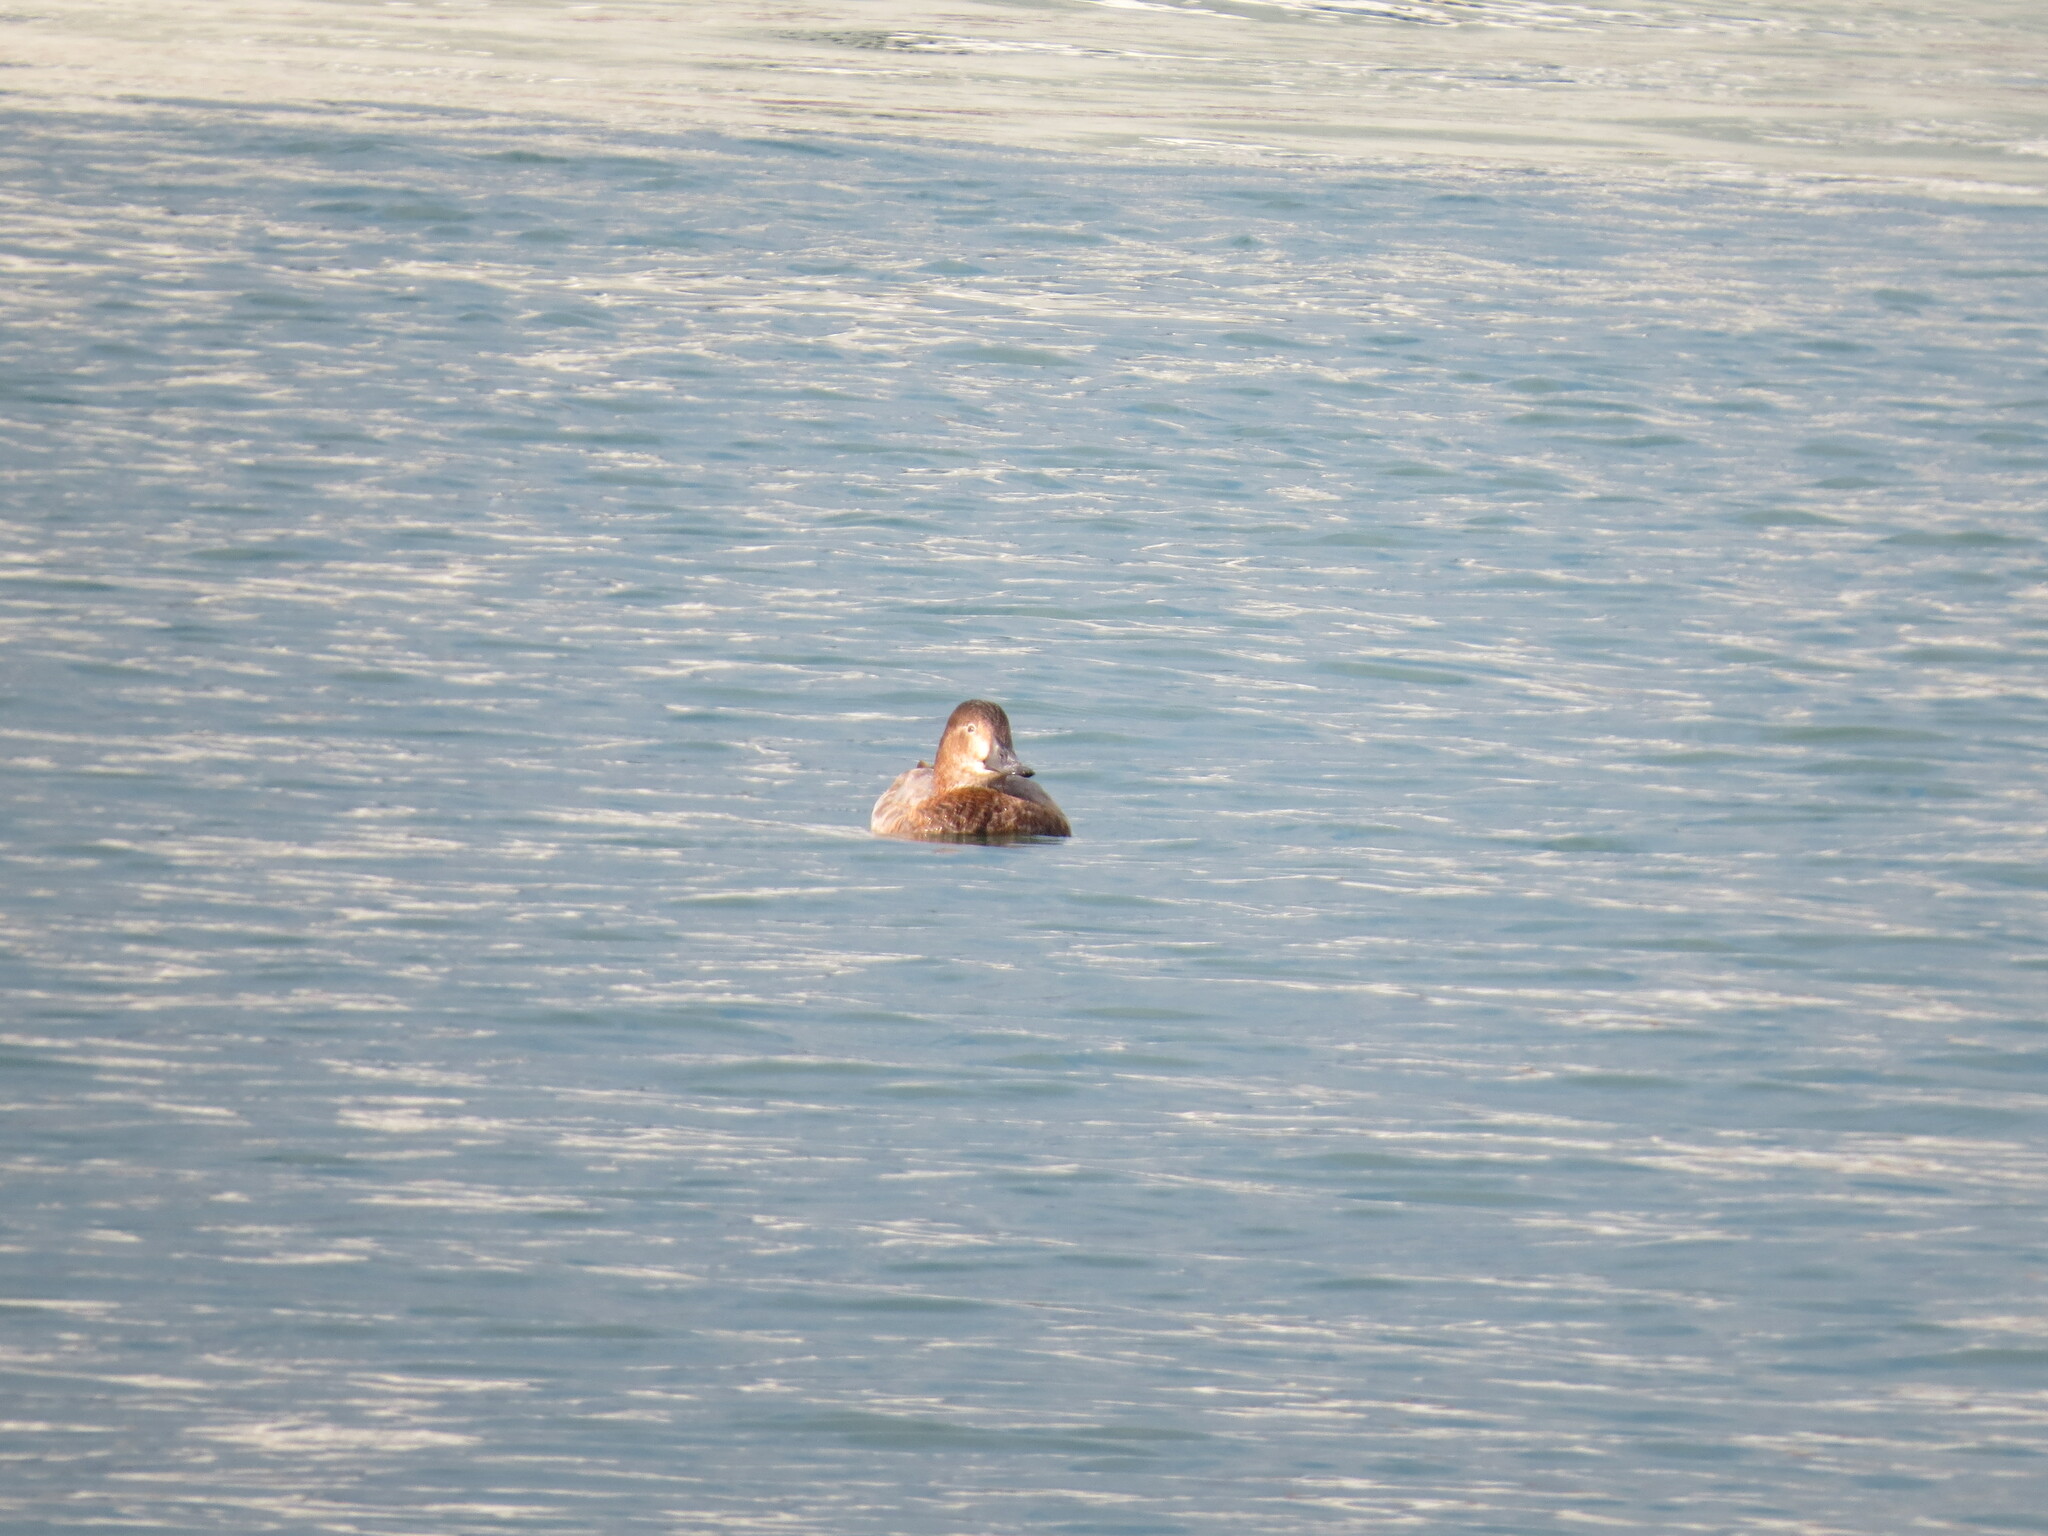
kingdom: Animalia
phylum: Chordata
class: Aves
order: Anseriformes
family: Anatidae
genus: Aythya
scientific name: Aythya ferina
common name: Common pochard
